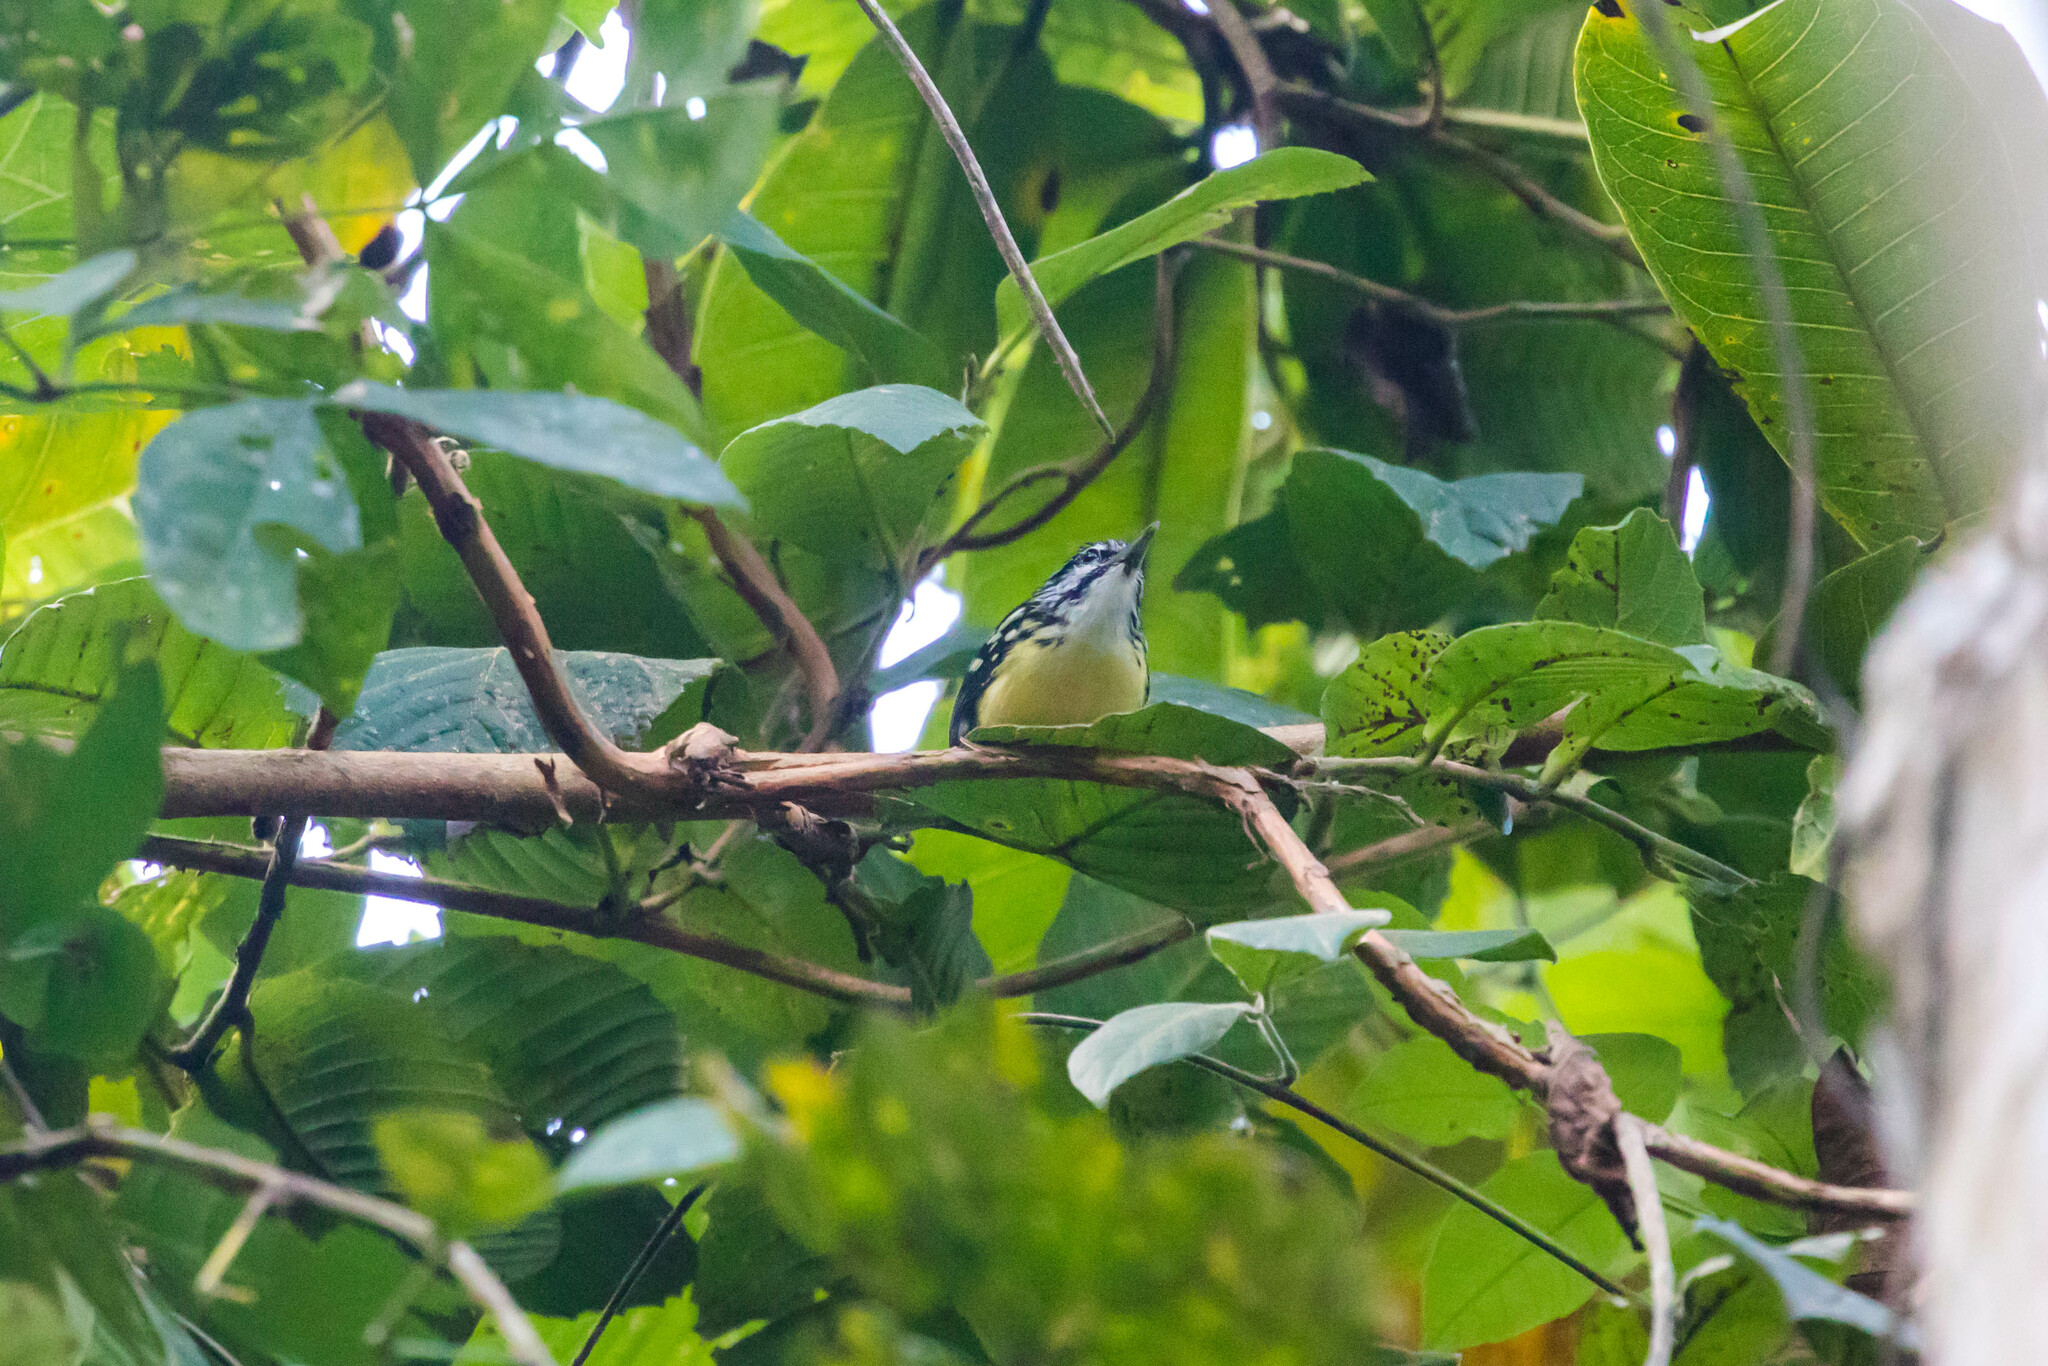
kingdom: Animalia
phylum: Chordata
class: Aves
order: Passeriformes
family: Thamnophilidae
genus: Myrmotherula
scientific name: Myrmotherula ignota
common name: Moustached antwren
